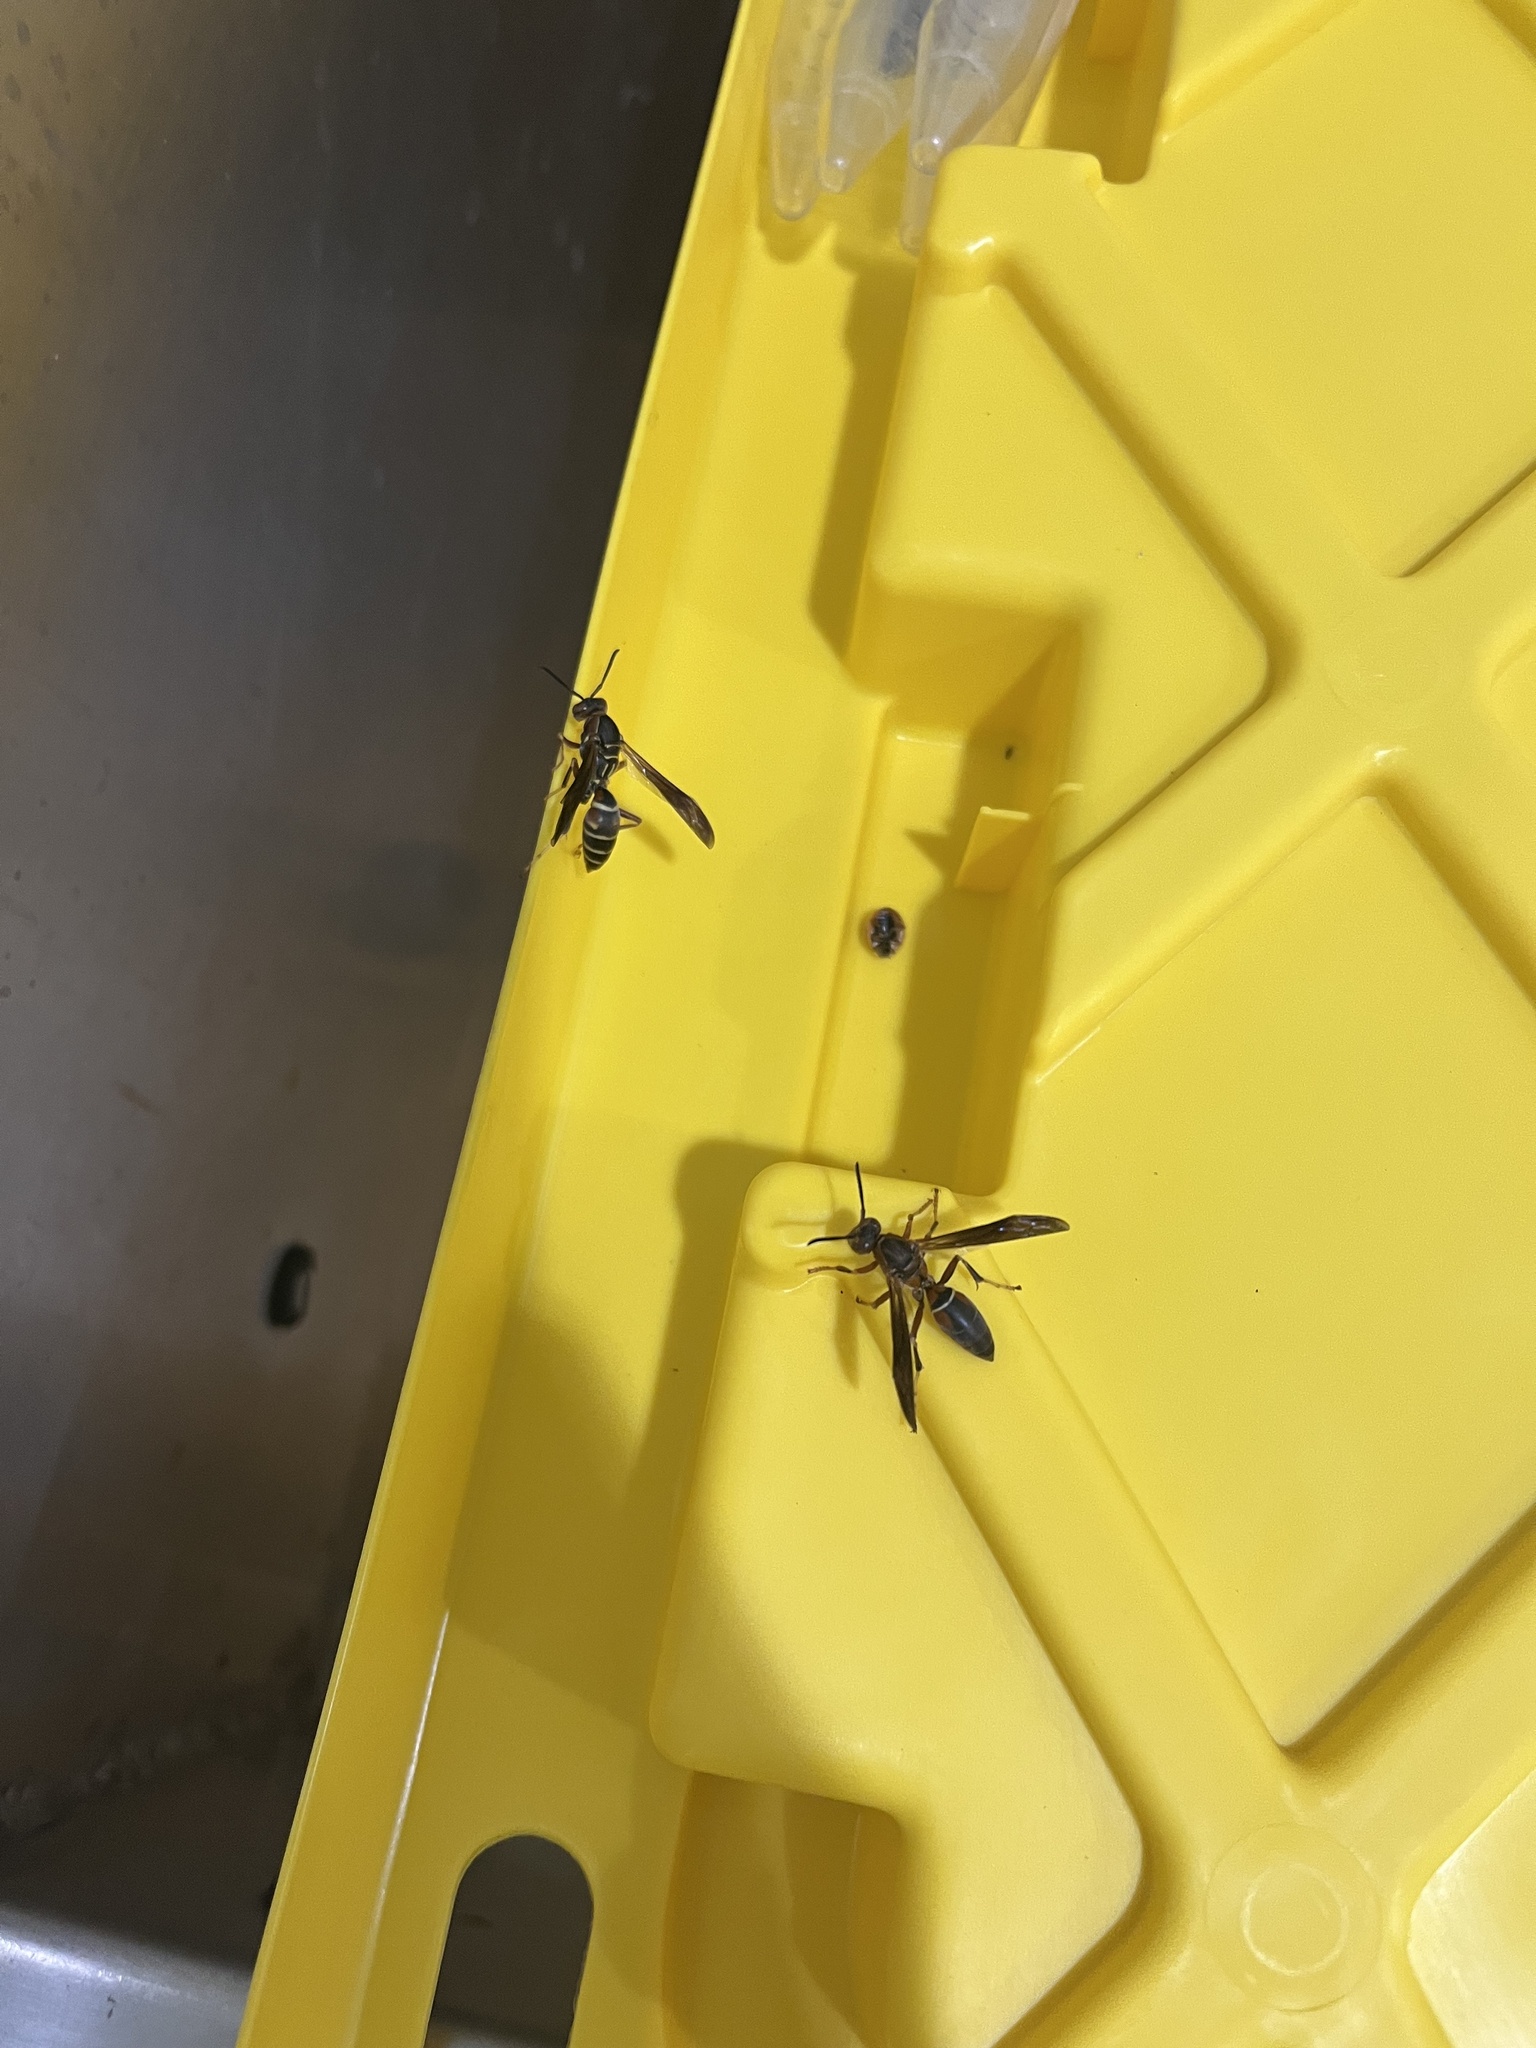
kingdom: Animalia
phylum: Arthropoda
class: Insecta
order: Hymenoptera
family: Eumenidae
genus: Polistes
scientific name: Polistes fuscatus
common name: Dark paper wasp
